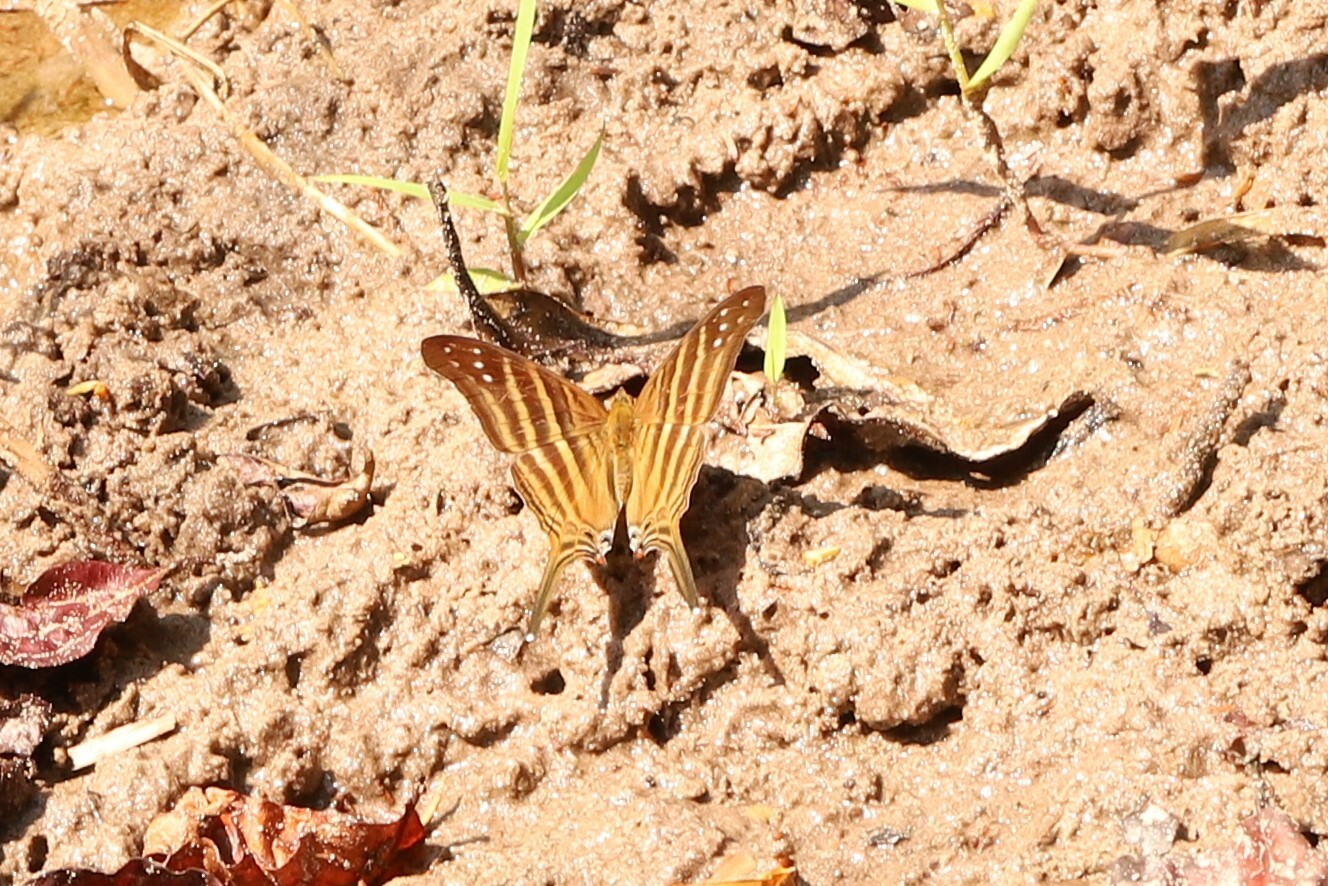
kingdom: Animalia
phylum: Arthropoda
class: Insecta
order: Lepidoptera
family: Nymphalidae
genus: Marpesia
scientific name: Marpesia chiron
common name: Many-banded daggerwing
